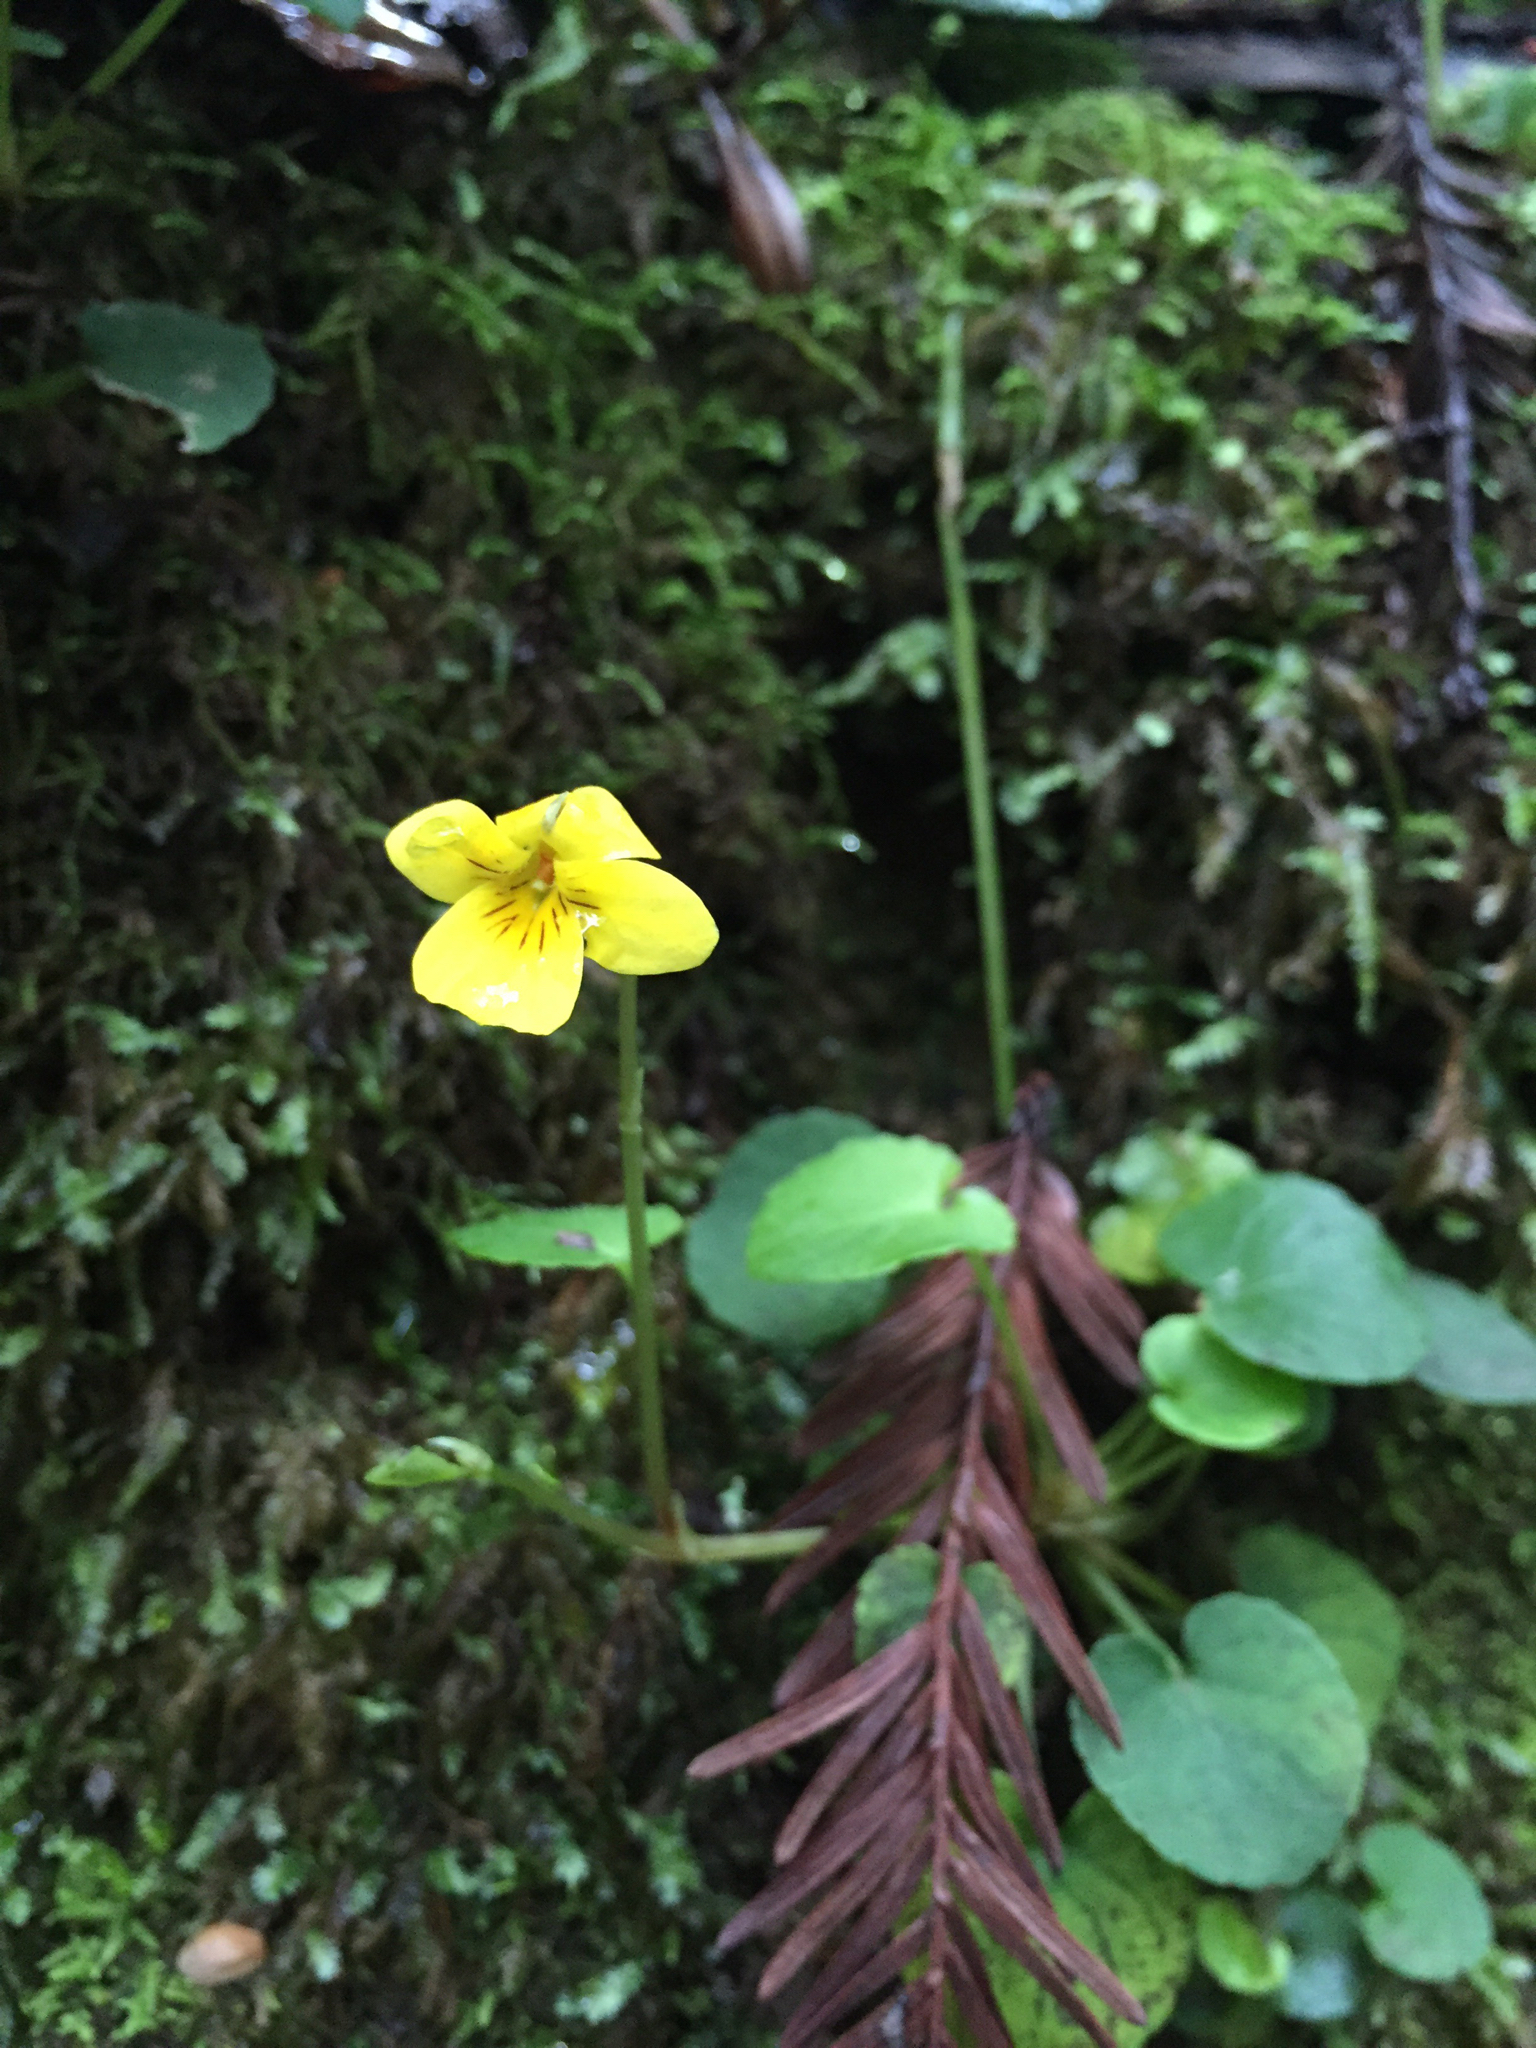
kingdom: Plantae
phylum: Tracheophyta
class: Magnoliopsida
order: Malpighiales
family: Violaceae
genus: Viola
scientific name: Viola sempervirens
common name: Evergreen violet
